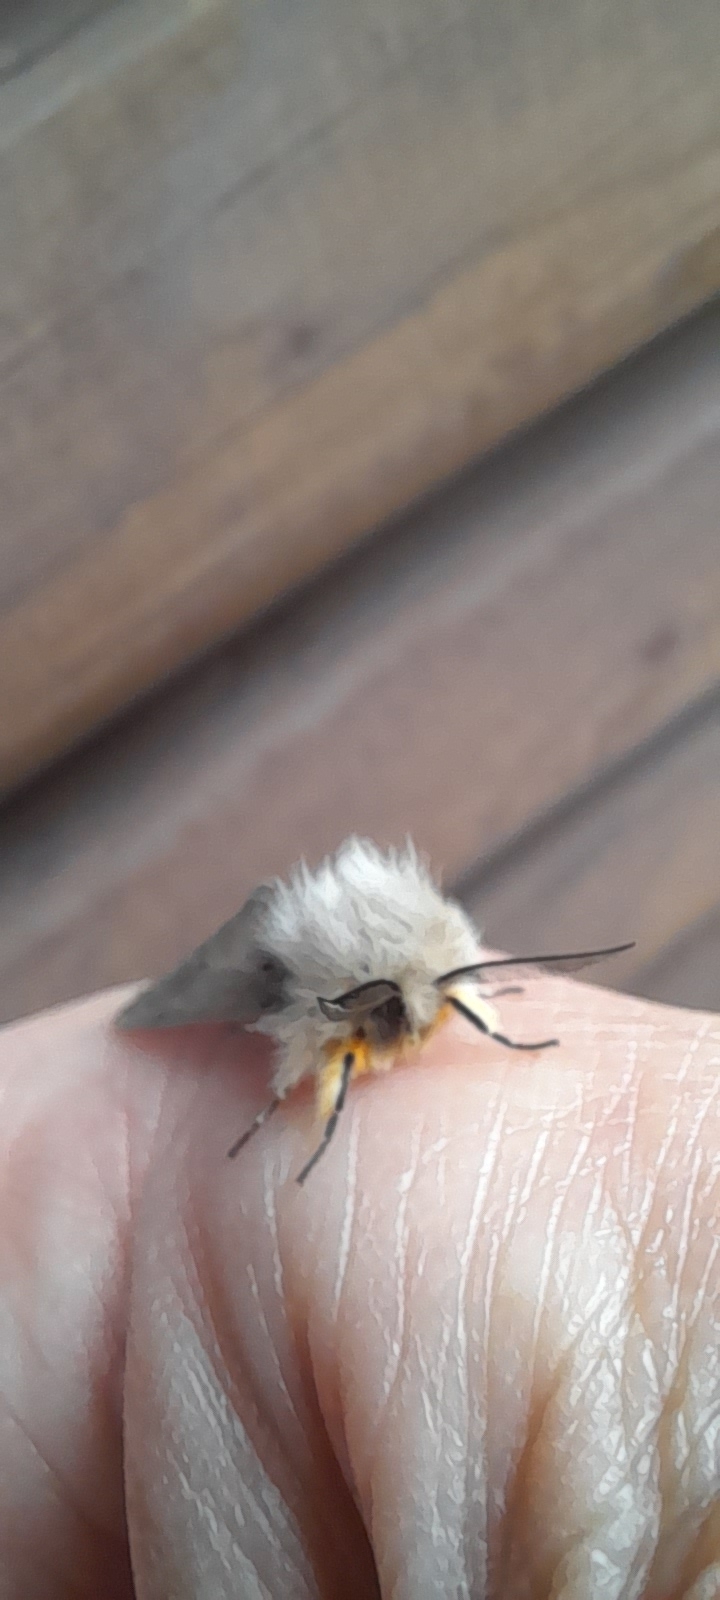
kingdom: Animalia
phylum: Arthropoda
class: Insecta
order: Lepidoptera
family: Erebidae
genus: Diaphora
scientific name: Diaphora mendica
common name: Muslin moth
